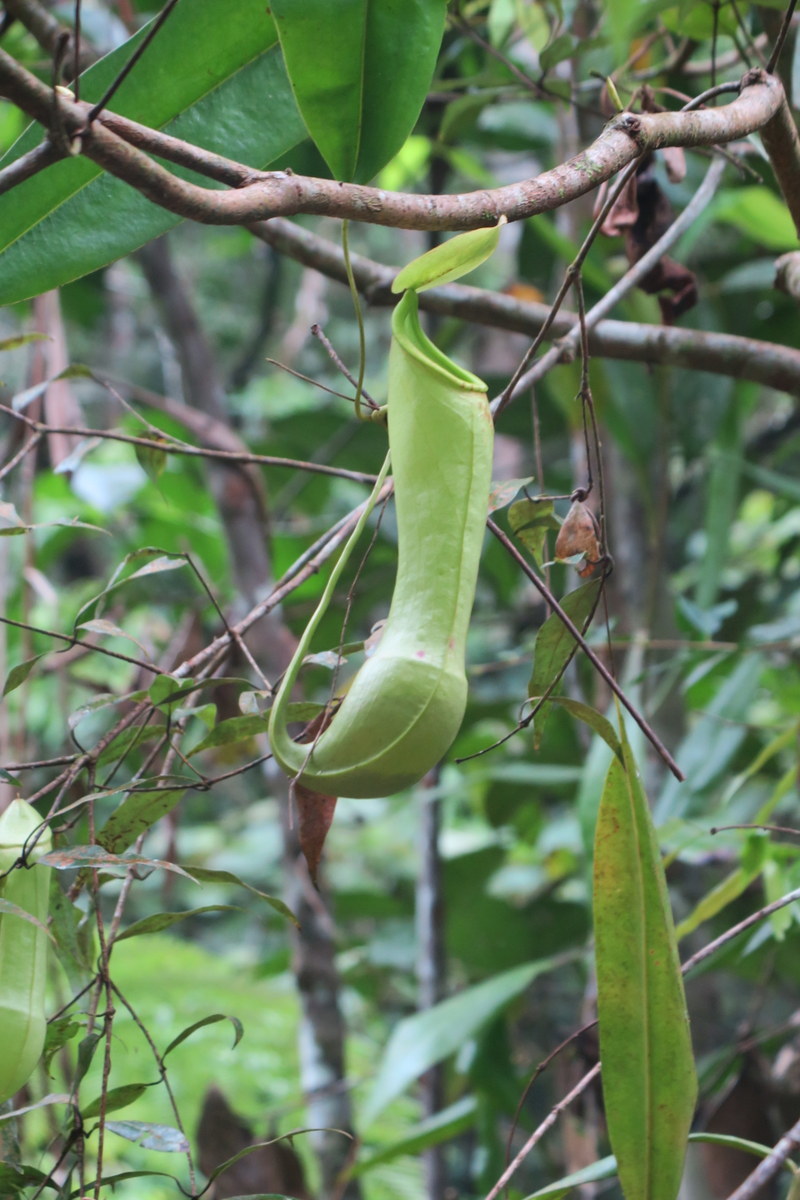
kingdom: Plantae
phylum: Tracheophyta
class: Magnoliopsida
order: Caryophyllales
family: Nepenthaceae
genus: Nepenthes
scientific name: Nepenthes distillatoria
